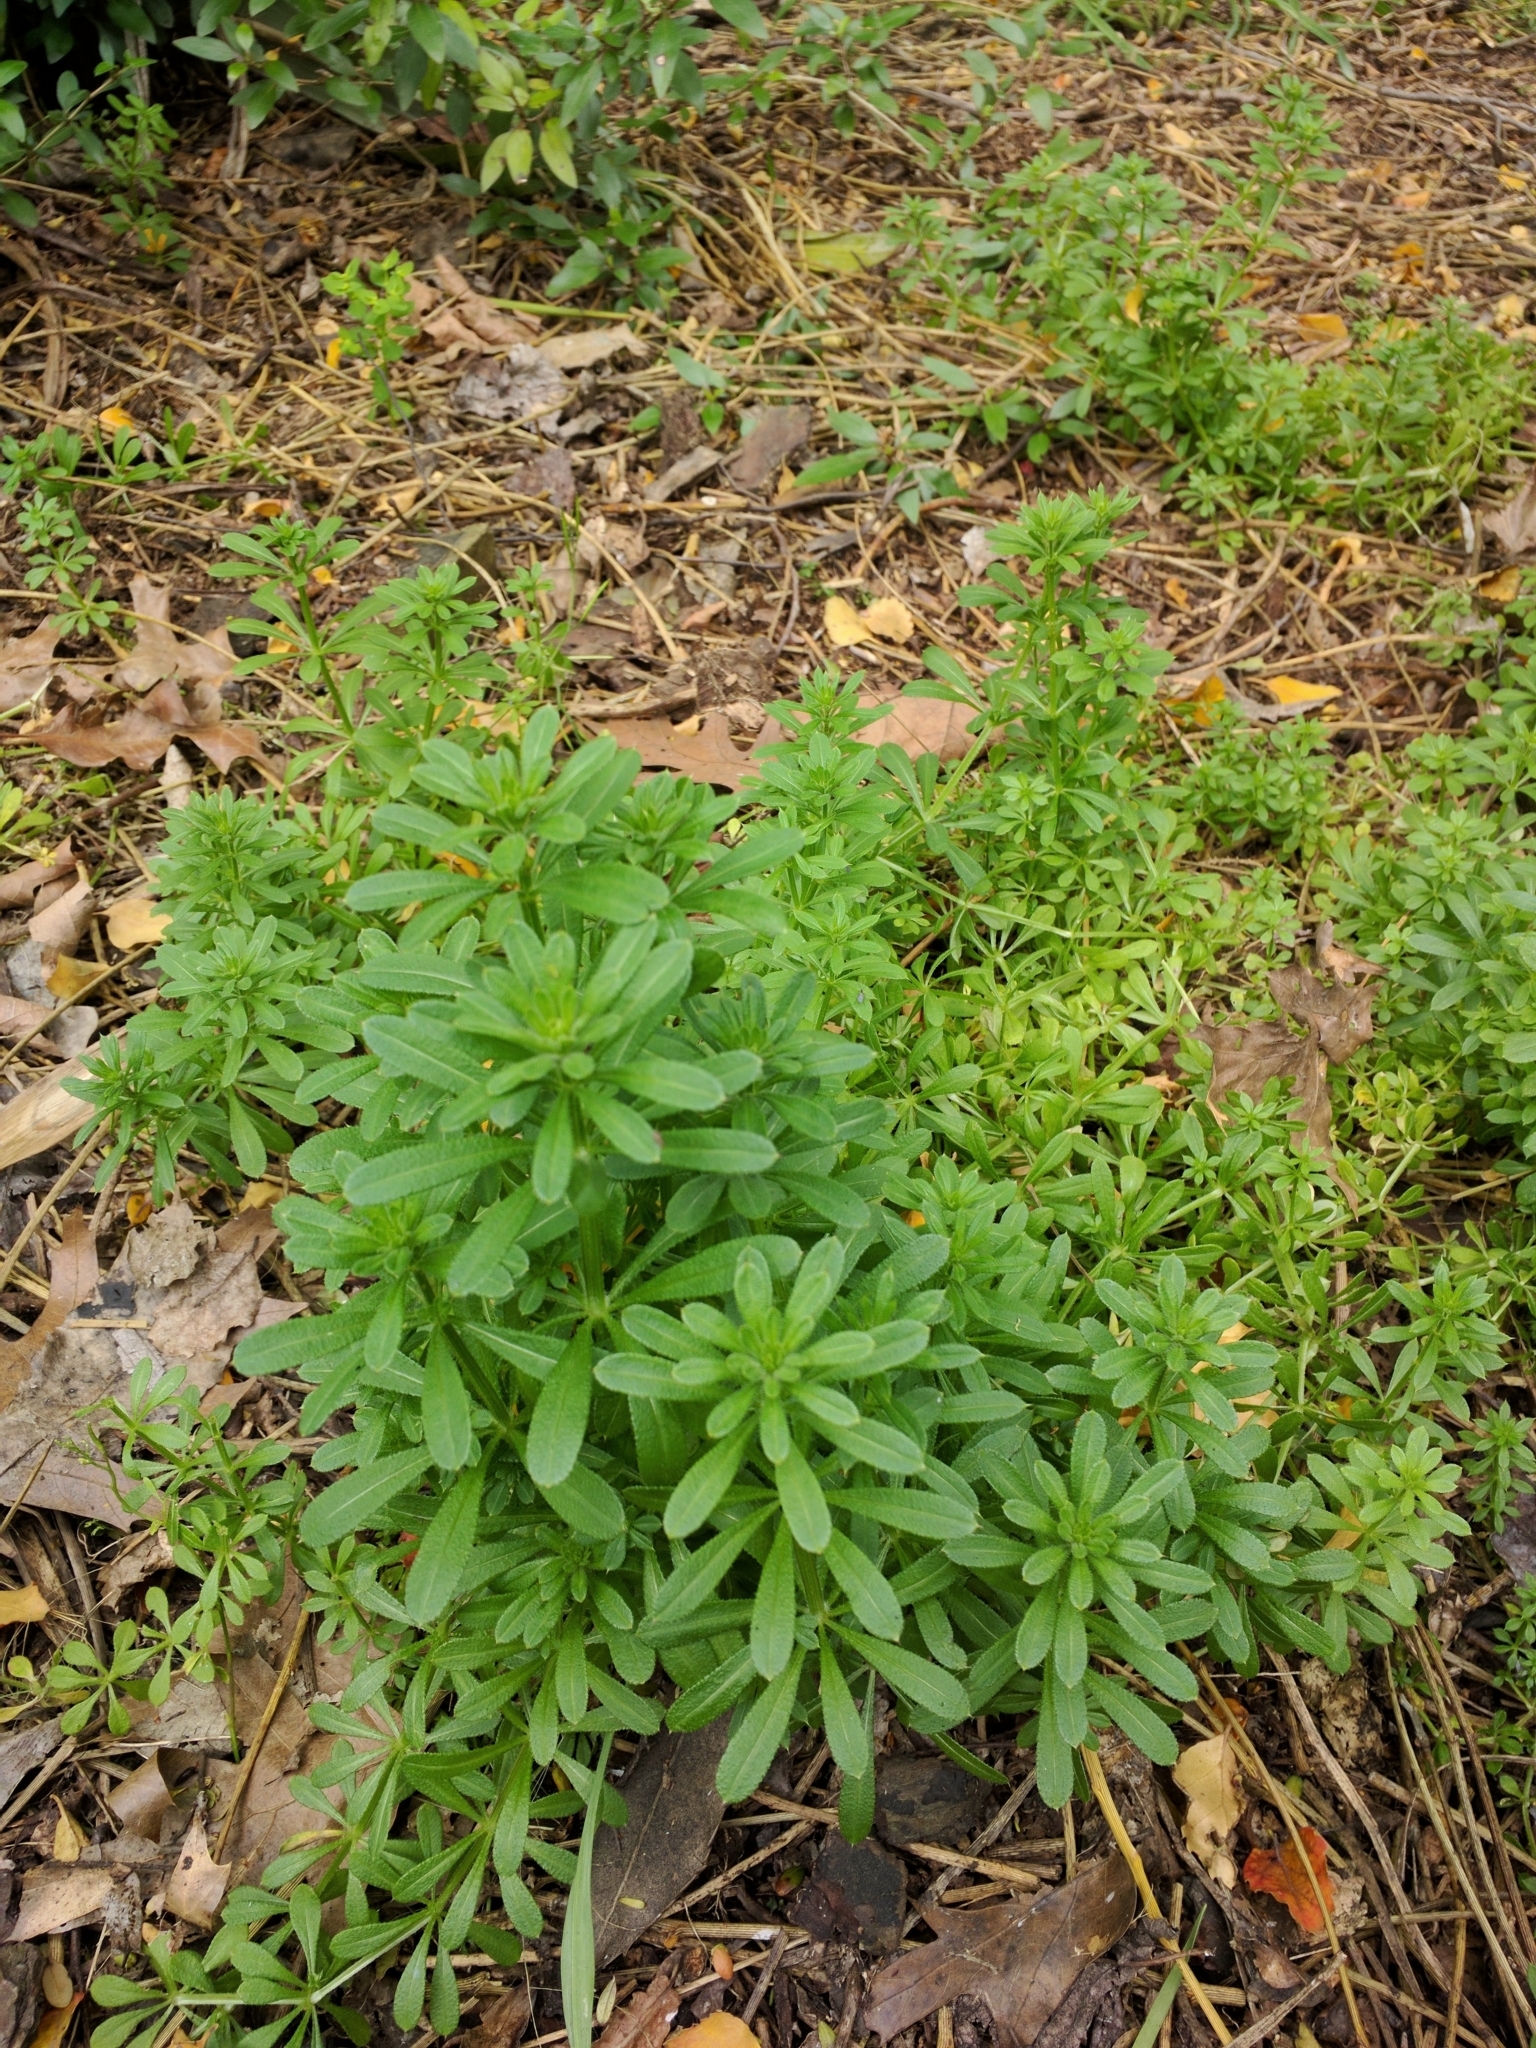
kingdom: Plantae
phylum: Tracheophyta
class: Magnoliopsida
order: Gentianales
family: Rubiaceae
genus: Galium
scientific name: Galium aparine
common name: Cleavers
